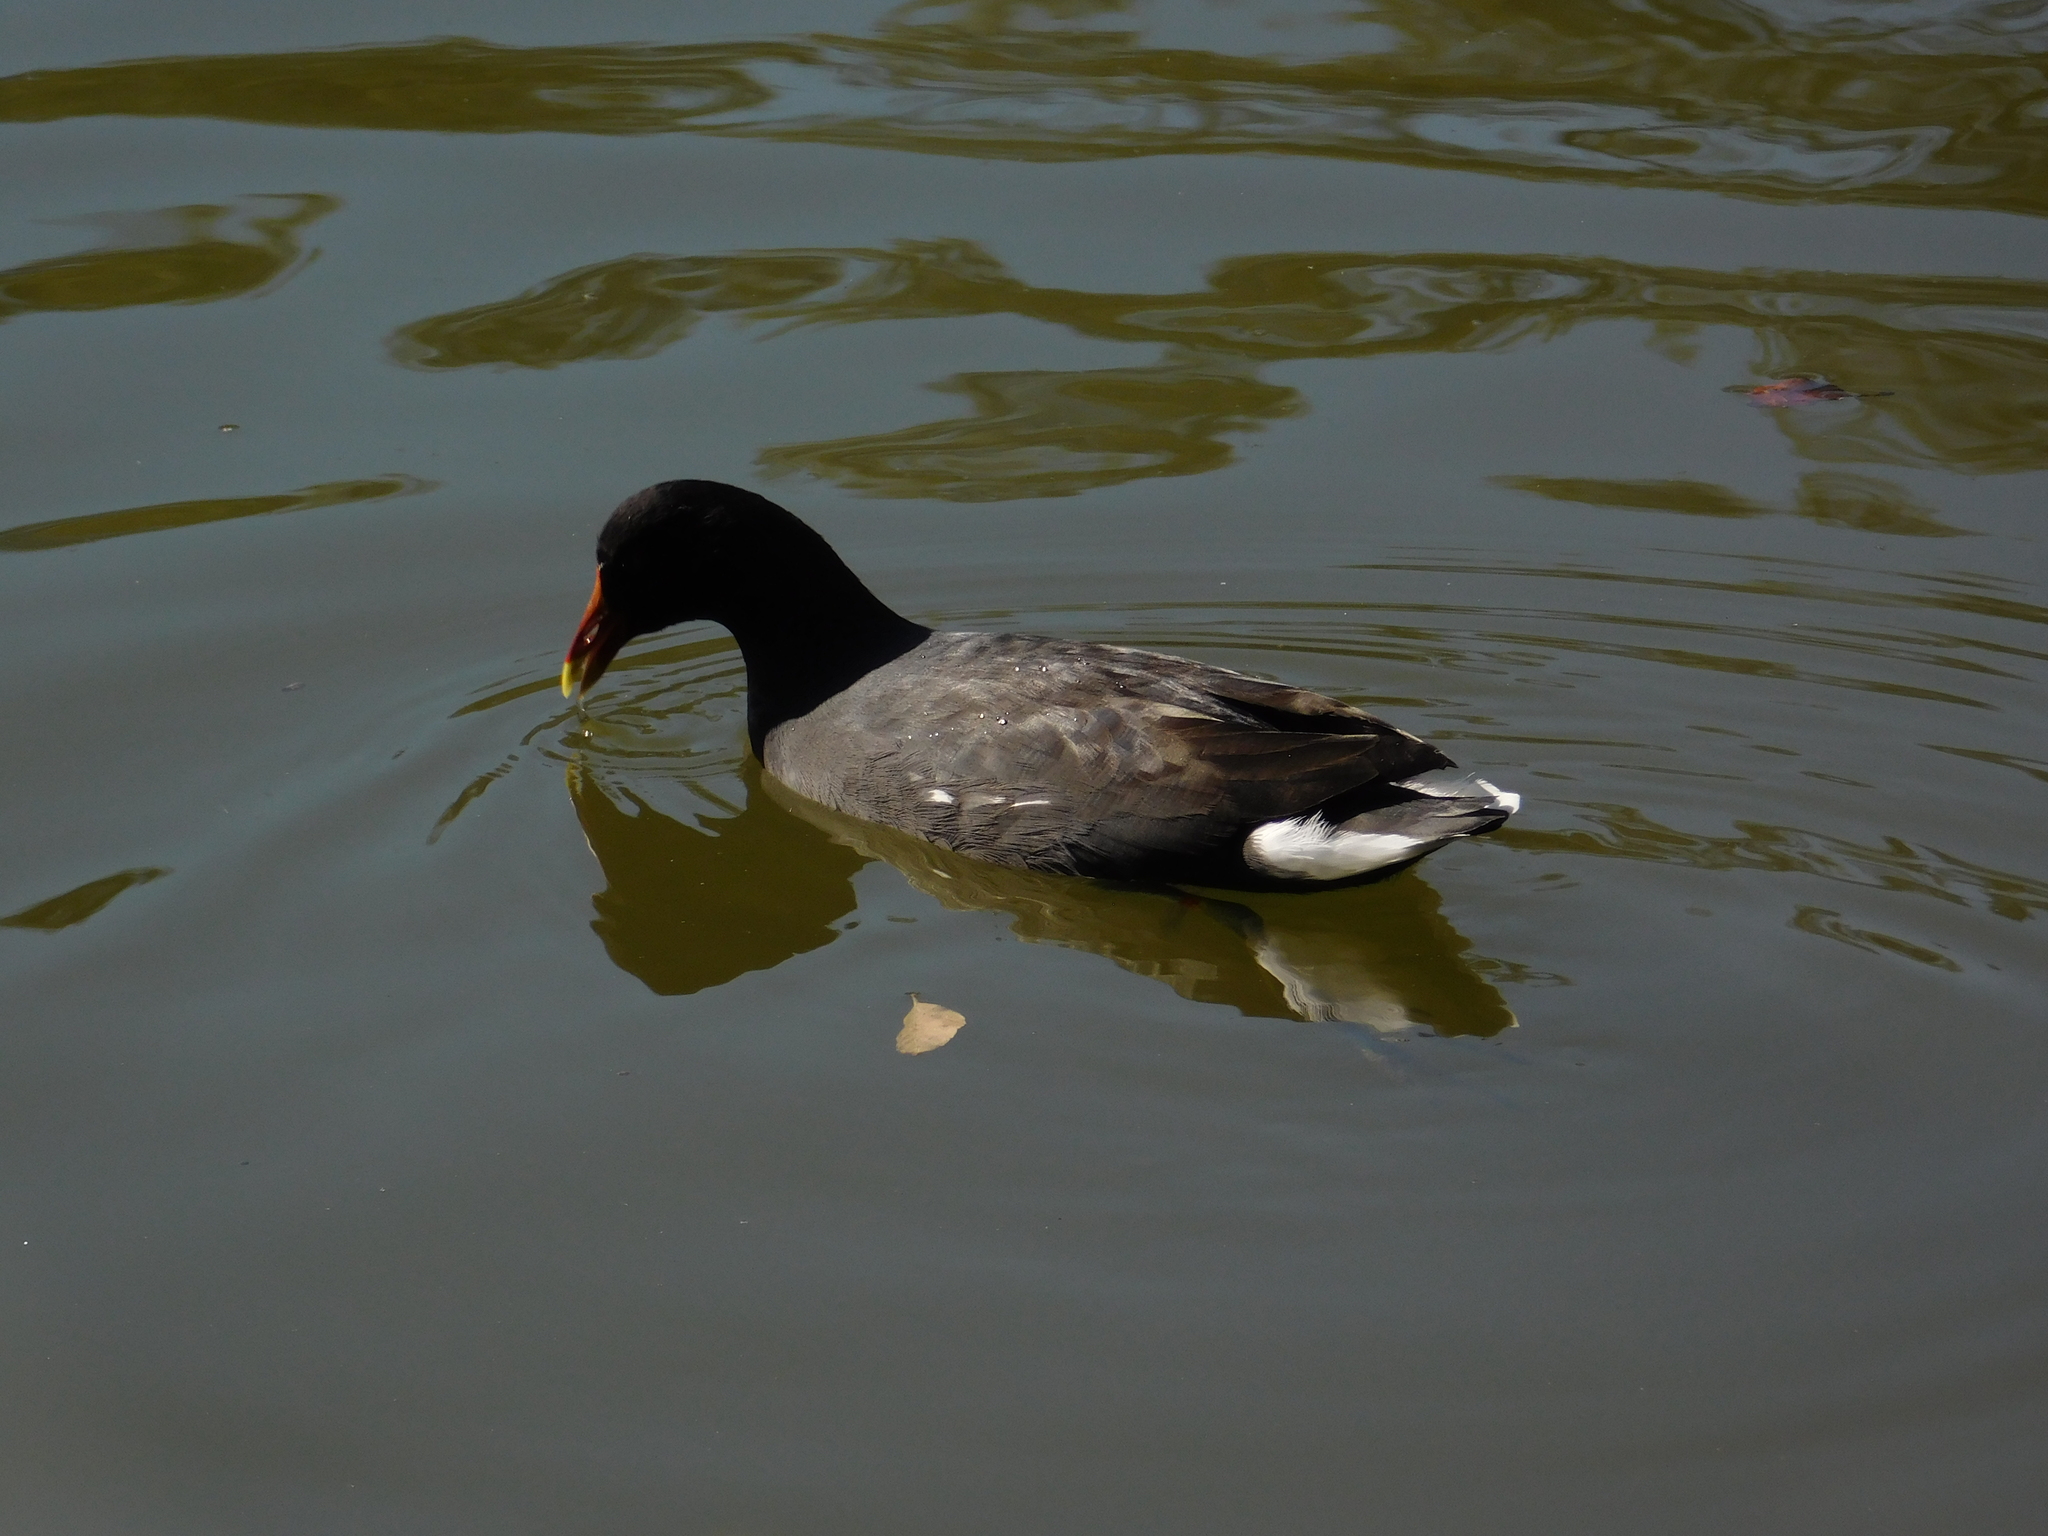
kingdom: Animalia
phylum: Chordata
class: Aves
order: Gruiformes
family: Rallidae
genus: Gallinula
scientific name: Gallinula chloropus
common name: Common moorhen
